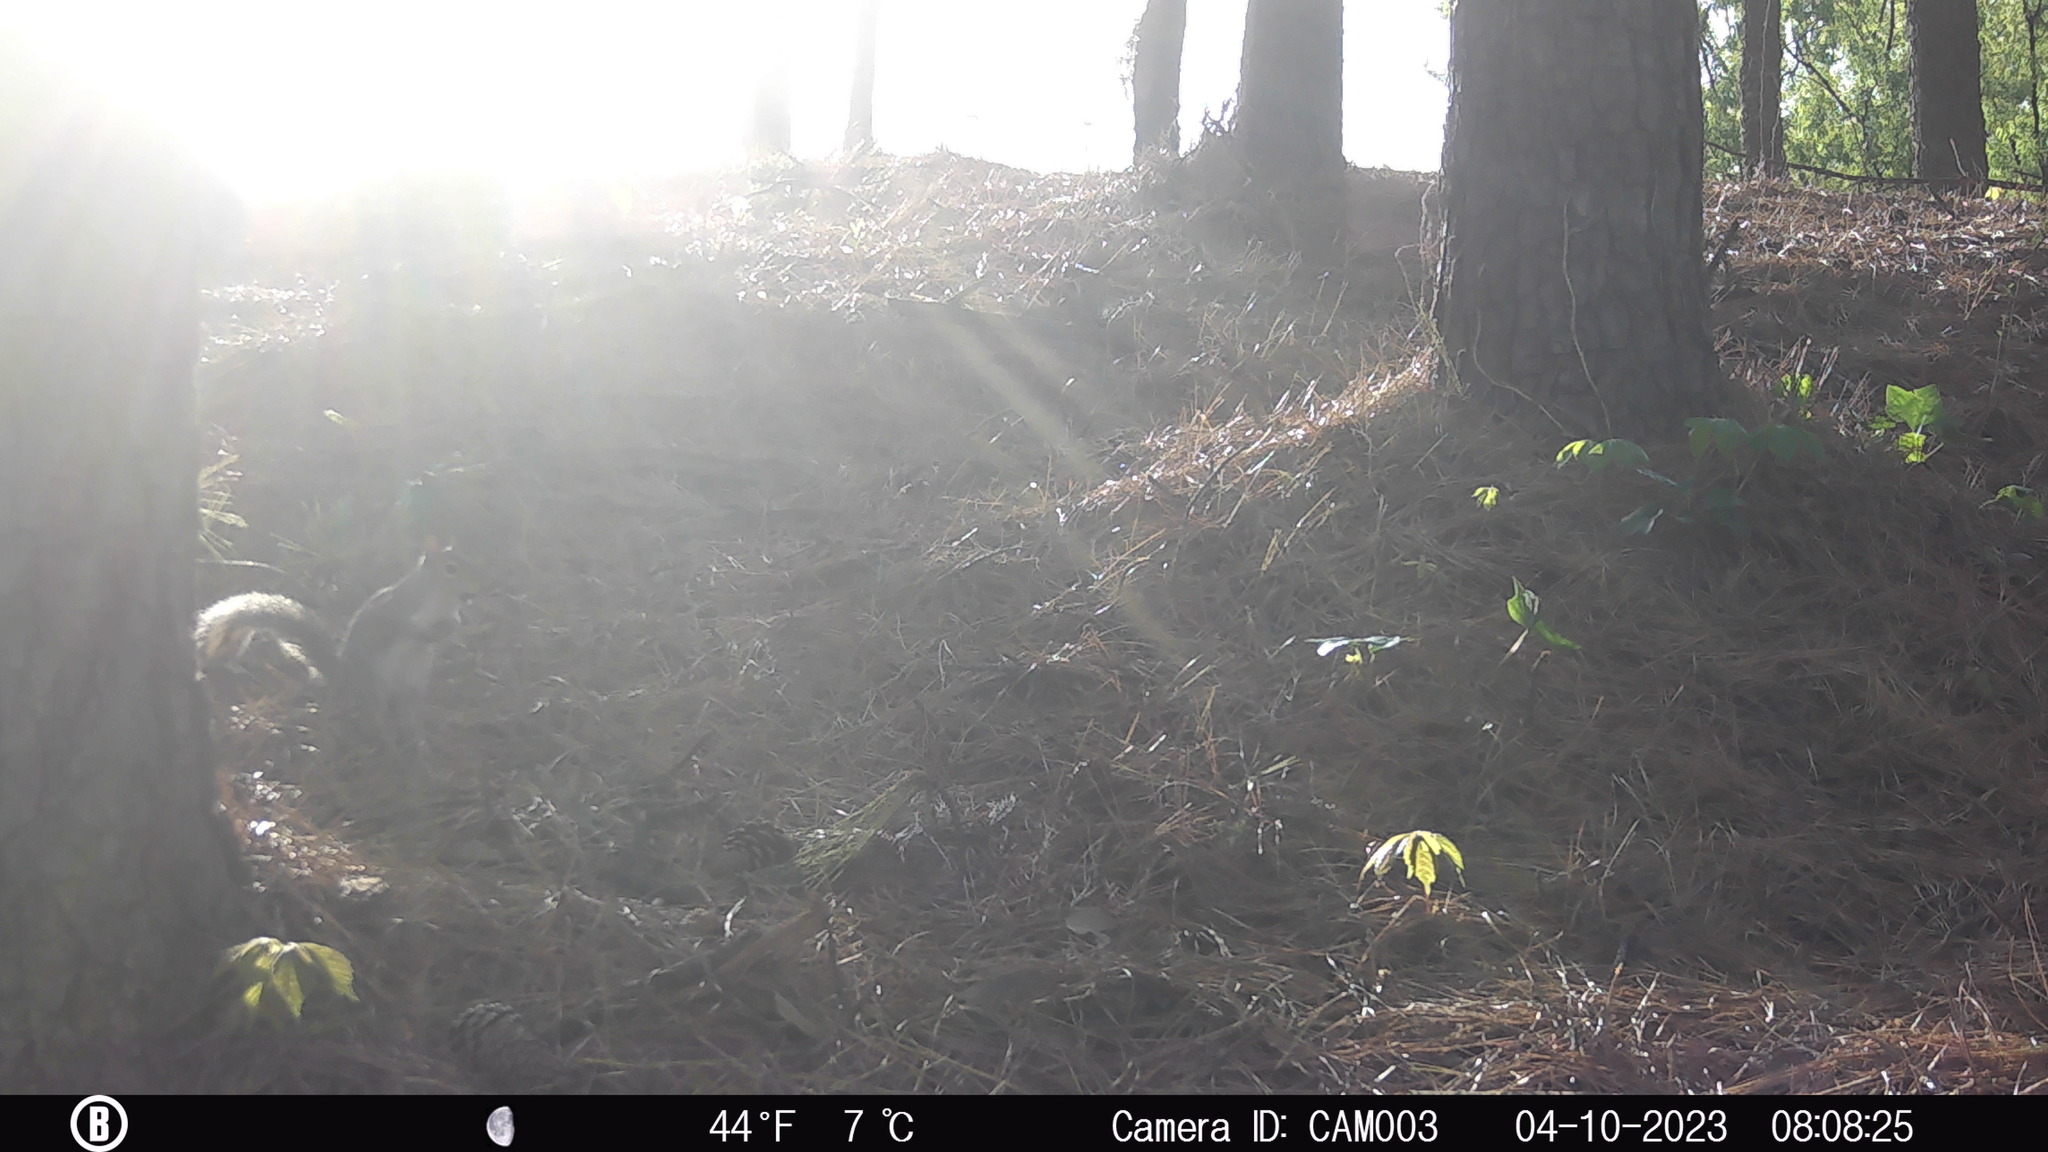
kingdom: Animalia
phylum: Chordata
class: Mammalia
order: Rodentia
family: Sciuridae
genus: Sciurus
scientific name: Sciurus carolinensis
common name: Eastern gray squirrel
